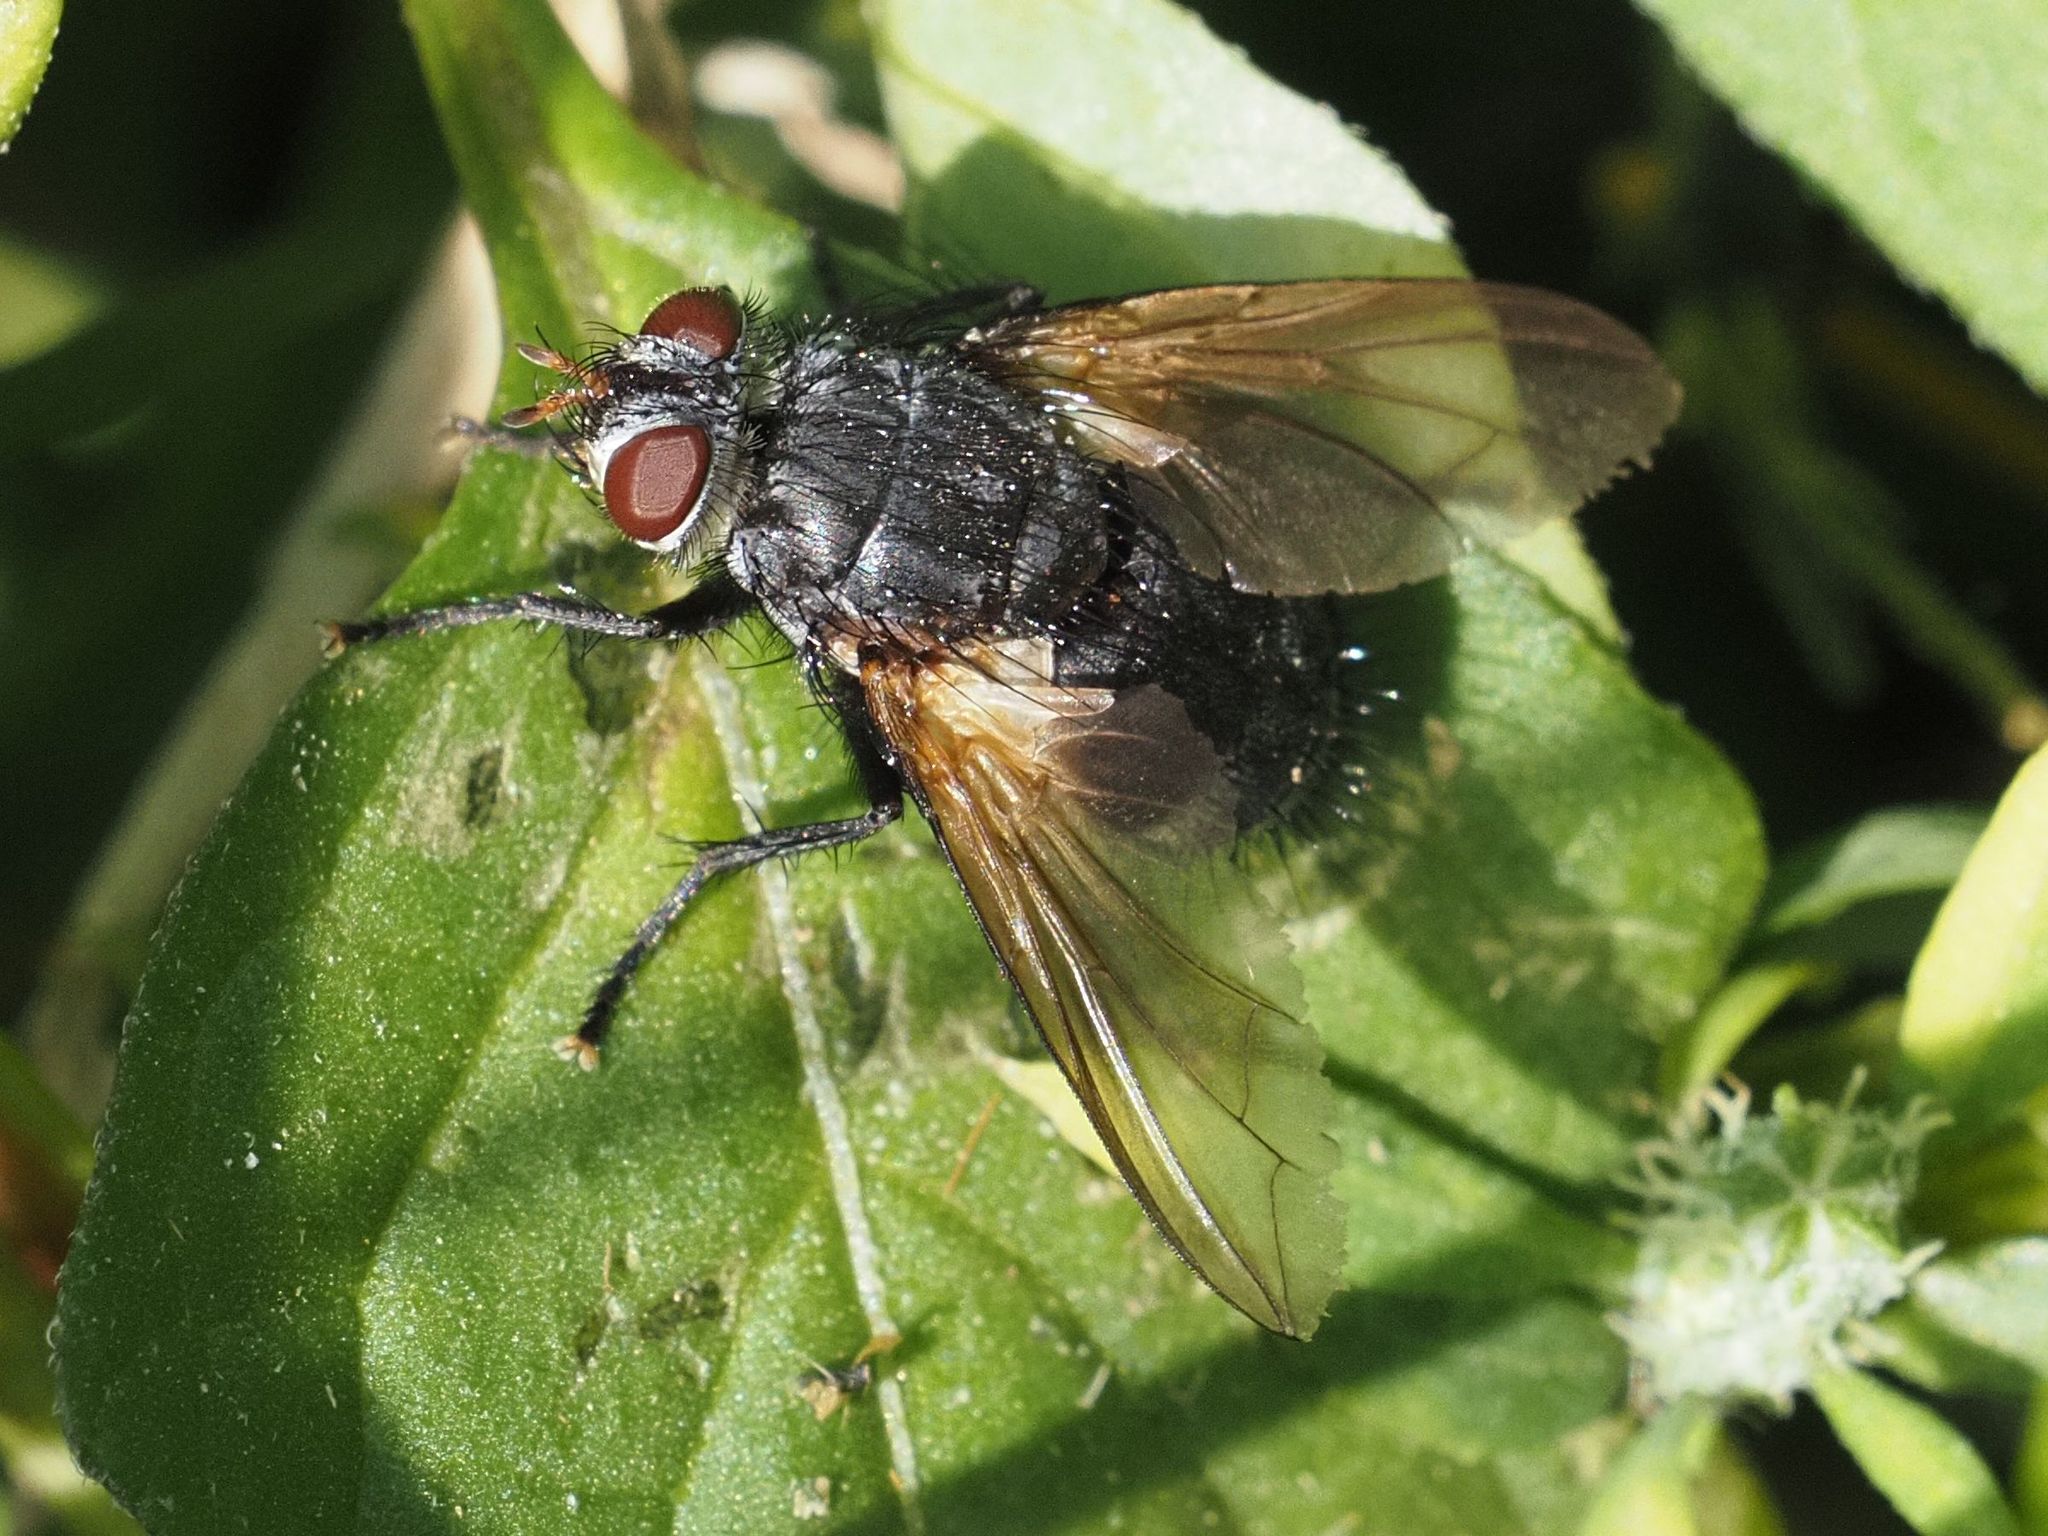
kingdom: Animalia
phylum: Arthropoda
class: Insecta
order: Diptera
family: Tachinidae
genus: Nemoraea
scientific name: Nemoraea pellucida
